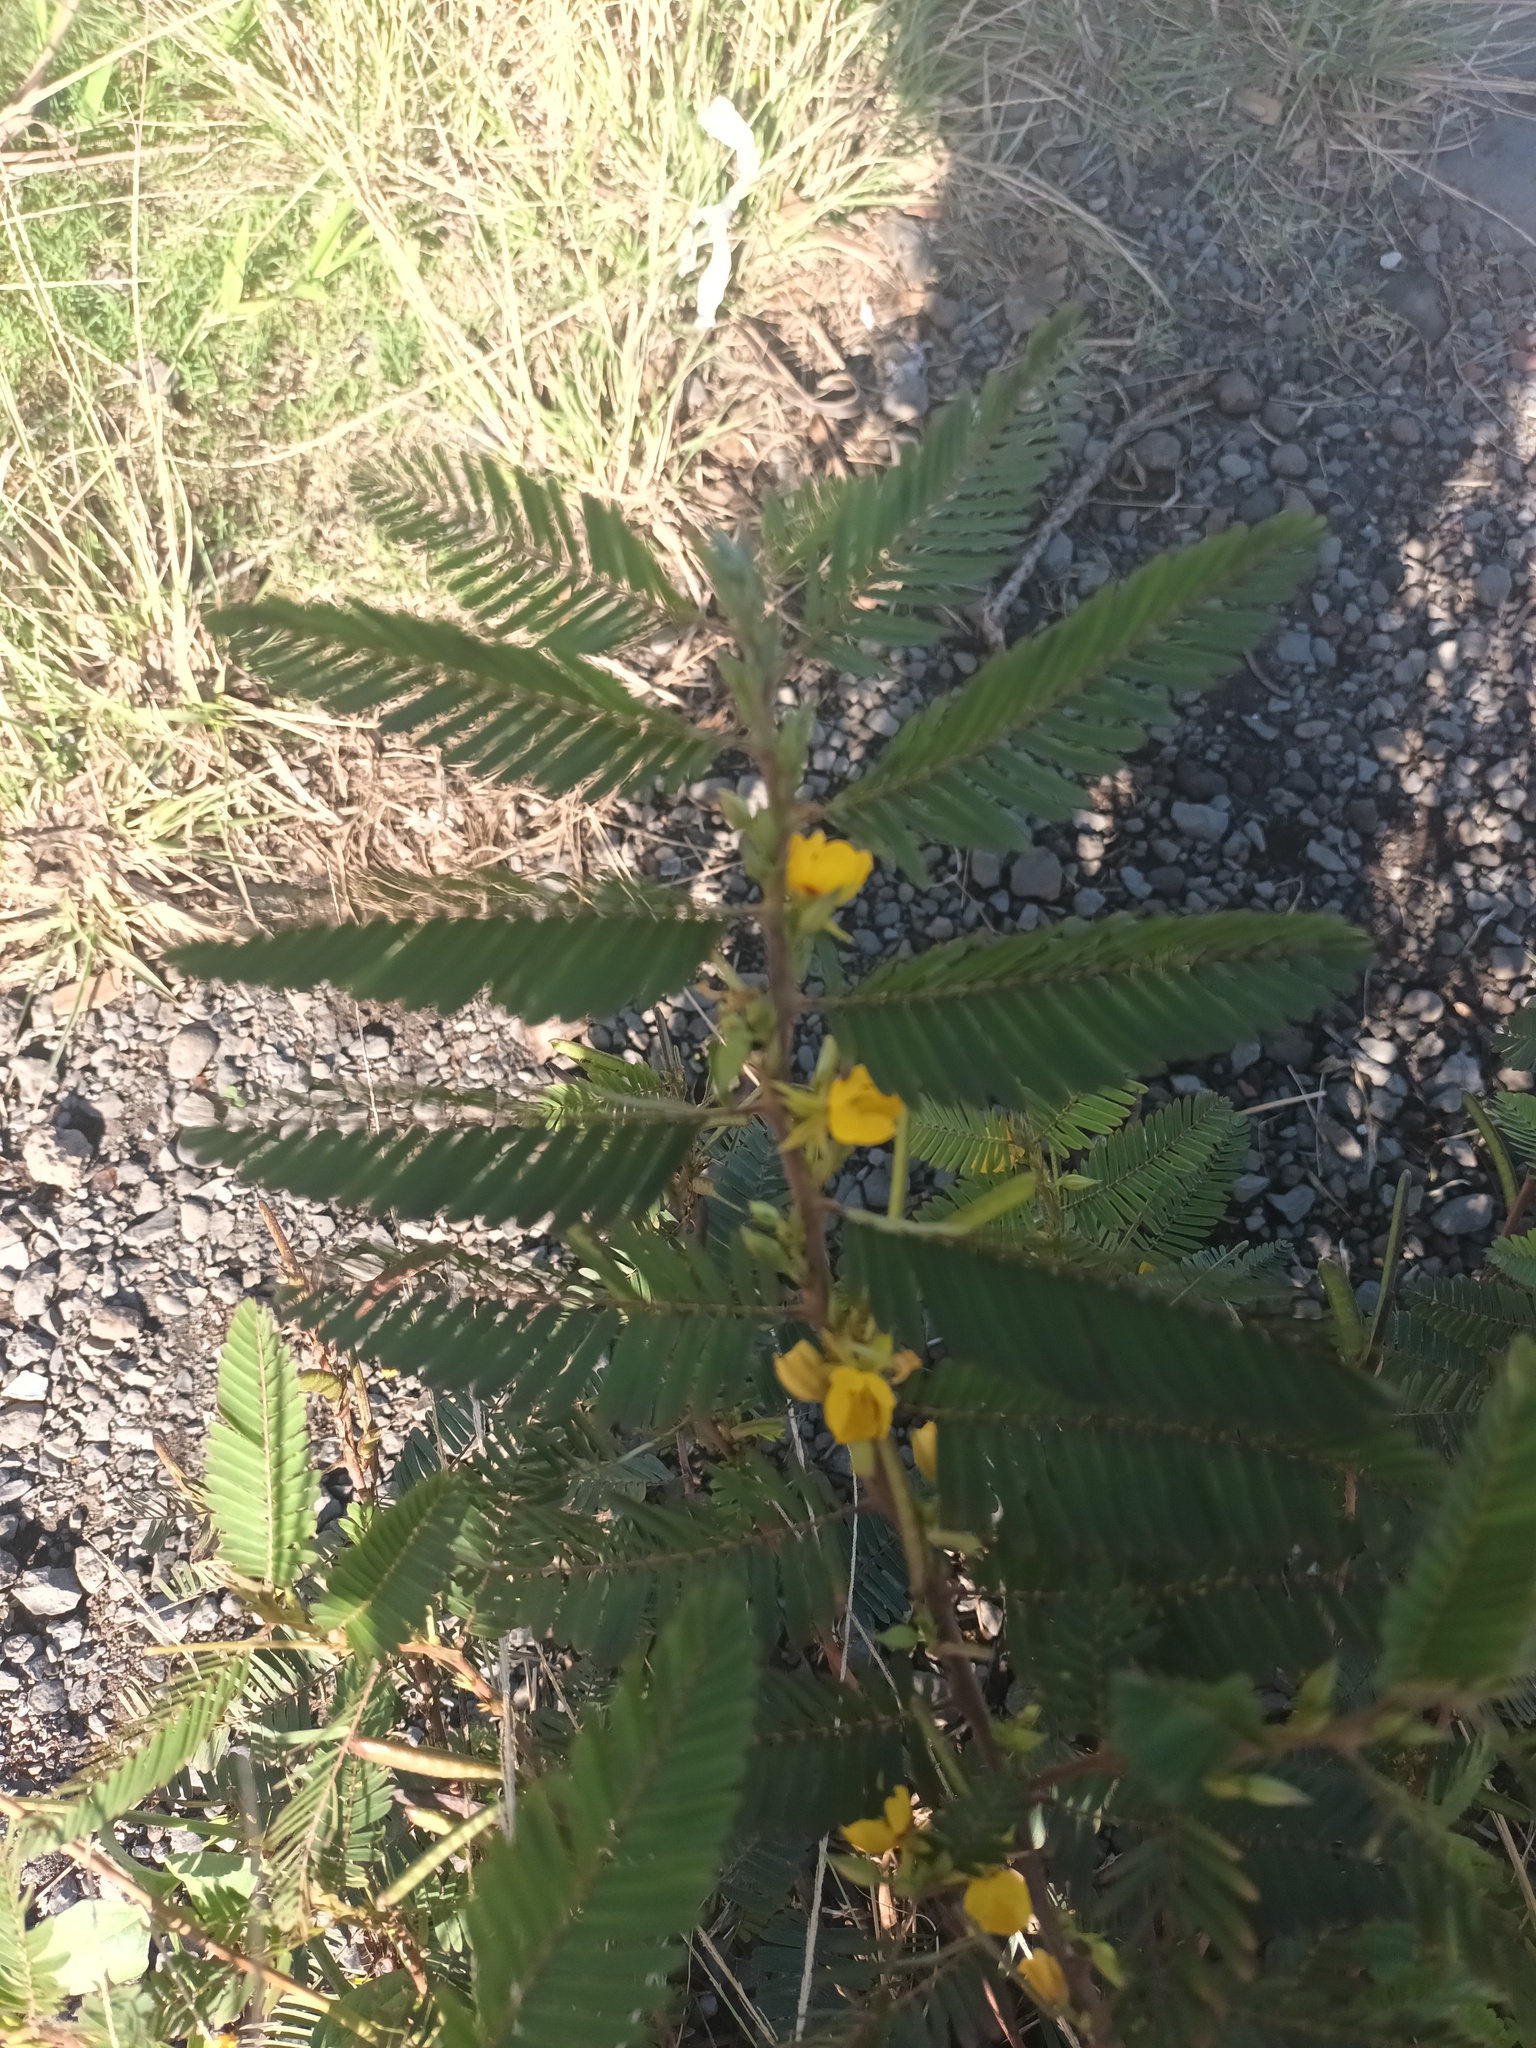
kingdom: Plantae
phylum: Tracheophyta
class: Magnoliopsida
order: Fabales
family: Fabaceae
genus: Chamaecrista
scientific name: Chamaecrista nictitans
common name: Sensitive cassia
